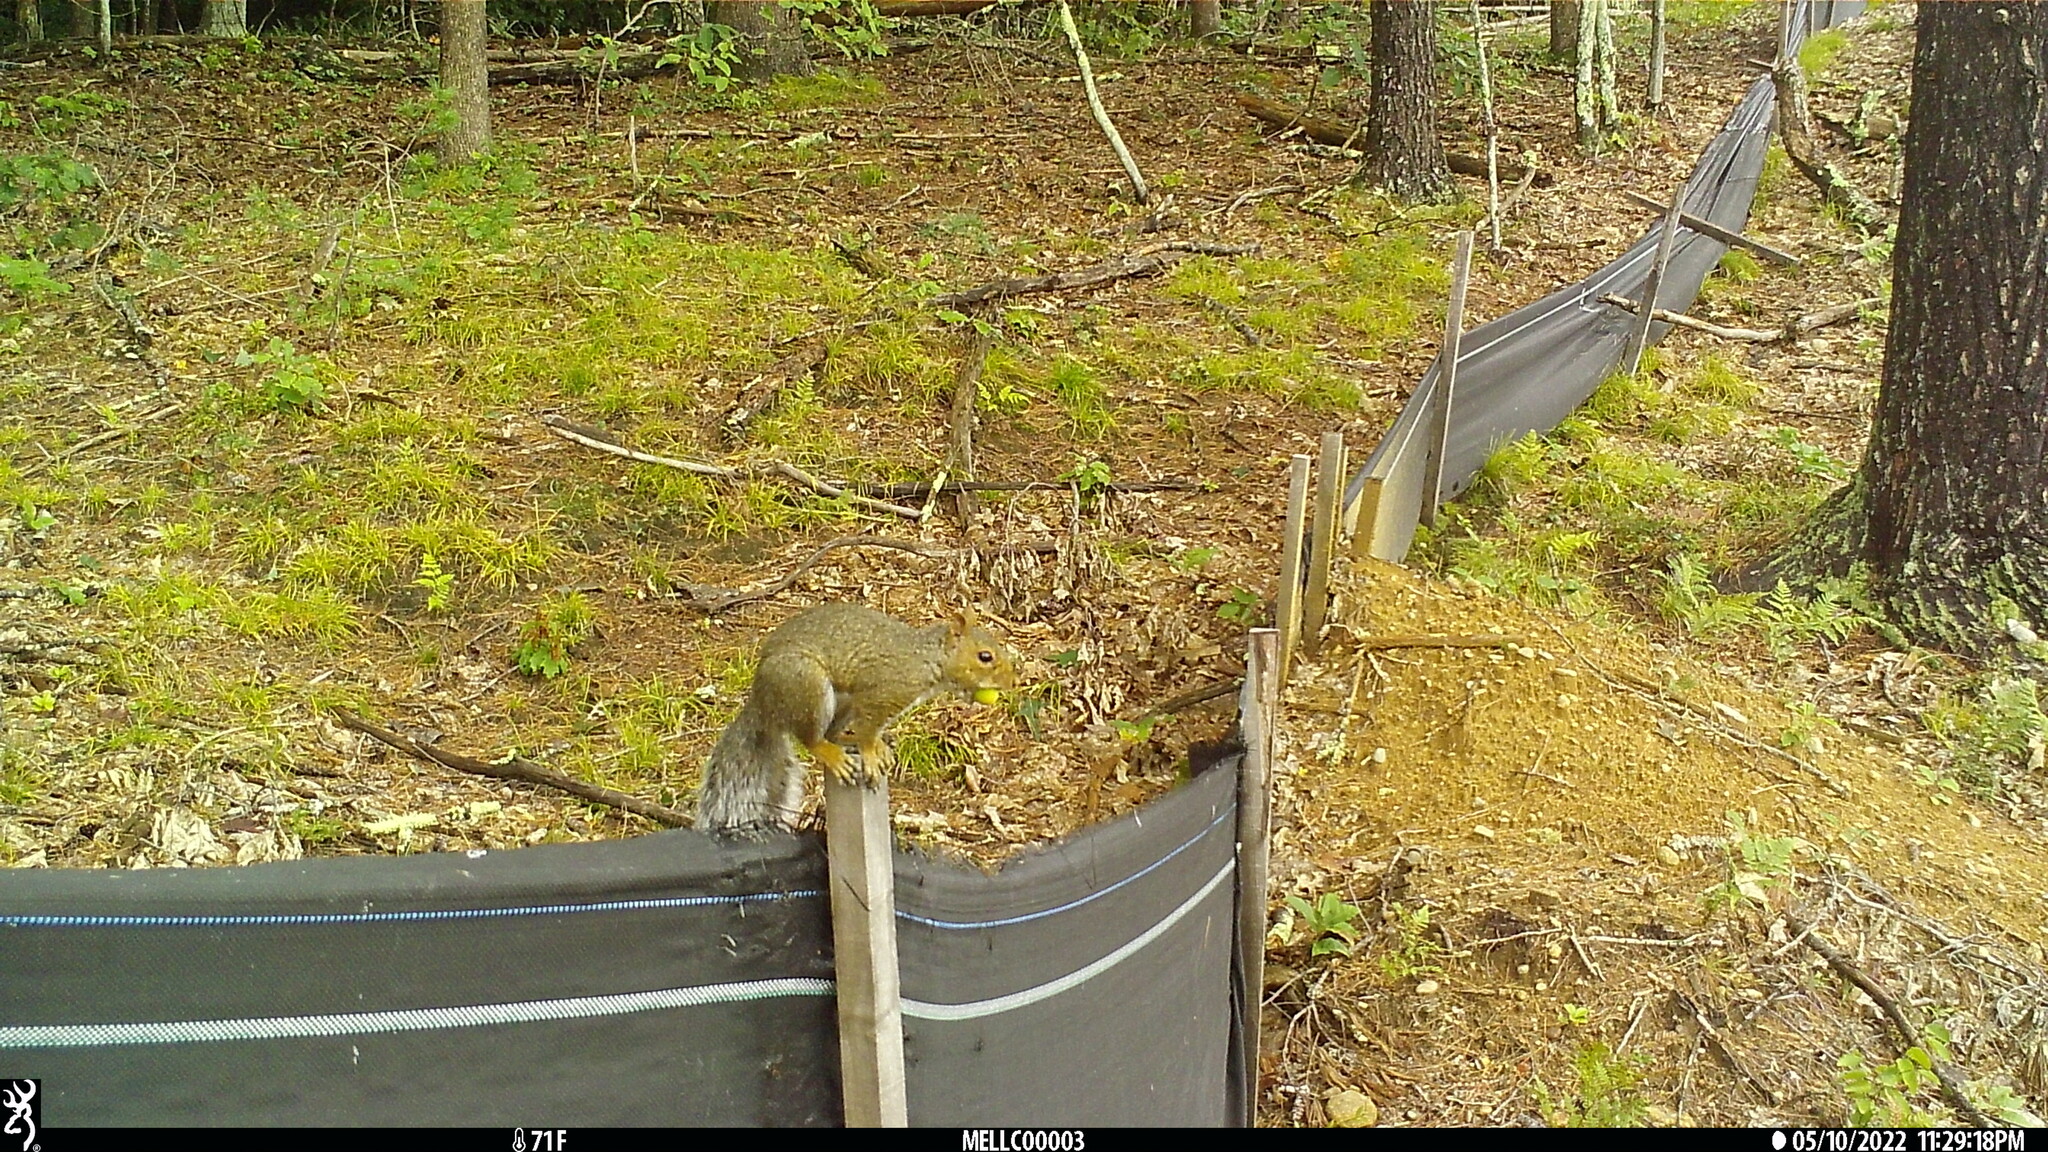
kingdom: Animalia
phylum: Chordata
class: Mammalia
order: Rodentia
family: Sciuridae
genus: Sciurus
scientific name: Sciurus carolinensis
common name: Eastern gray squirrel
